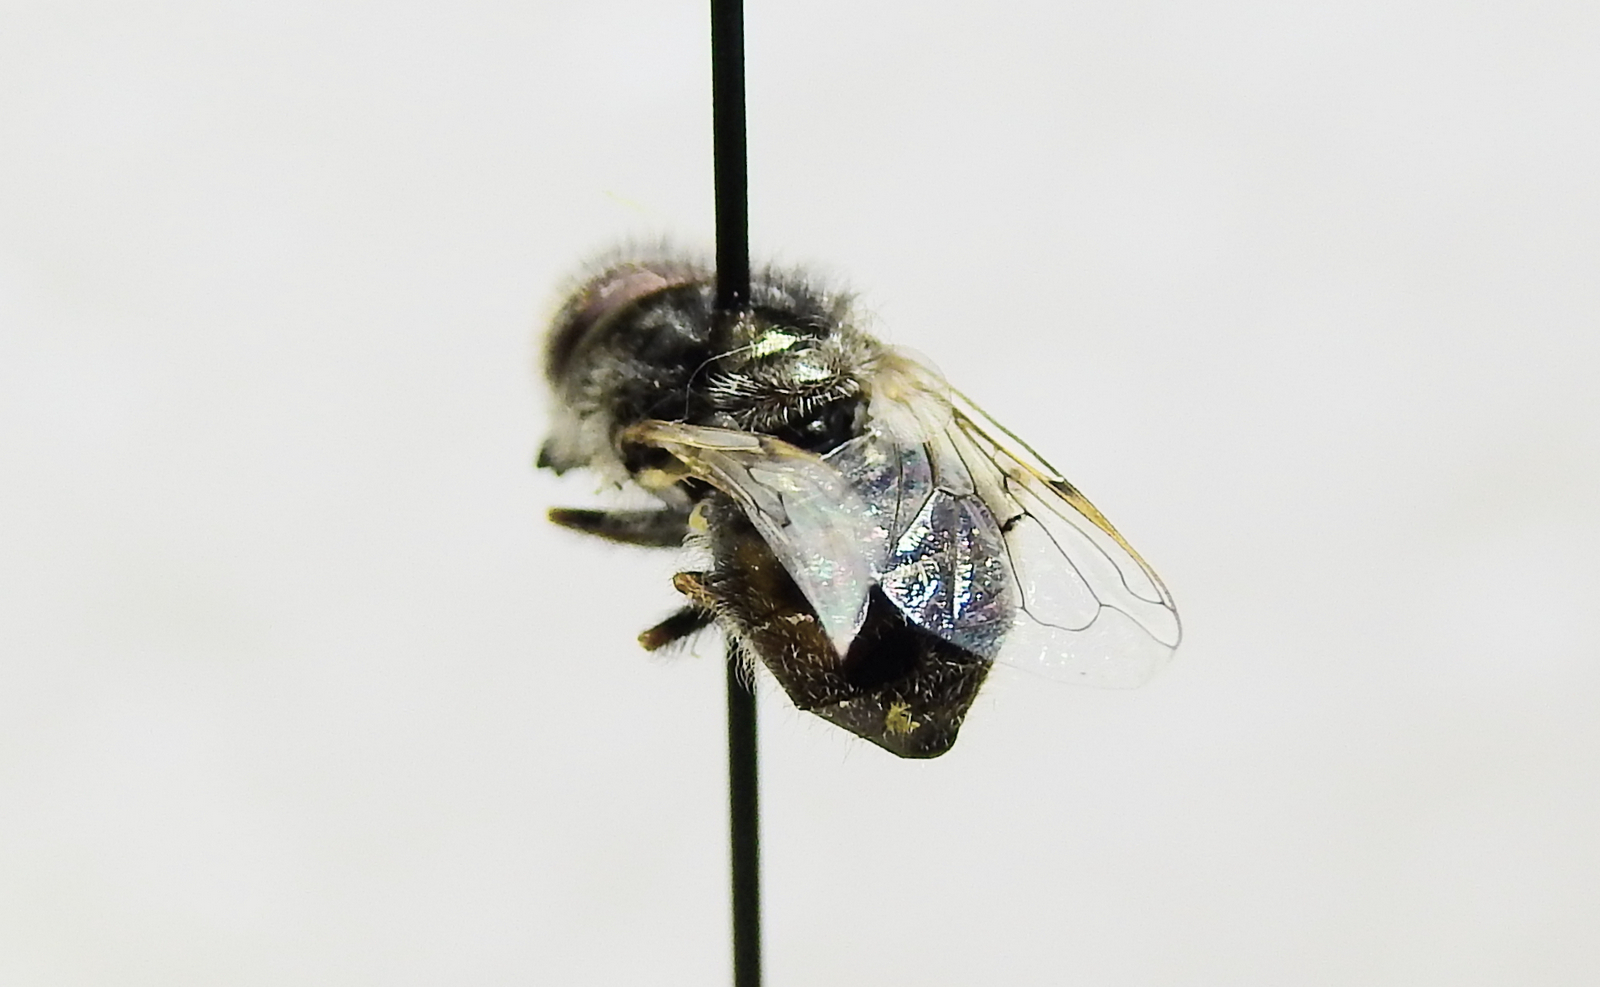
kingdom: Animalia
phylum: Arthropoda
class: Insecta
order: Diptera
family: Syrphidae
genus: Copestylum
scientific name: Copestylum smithae
